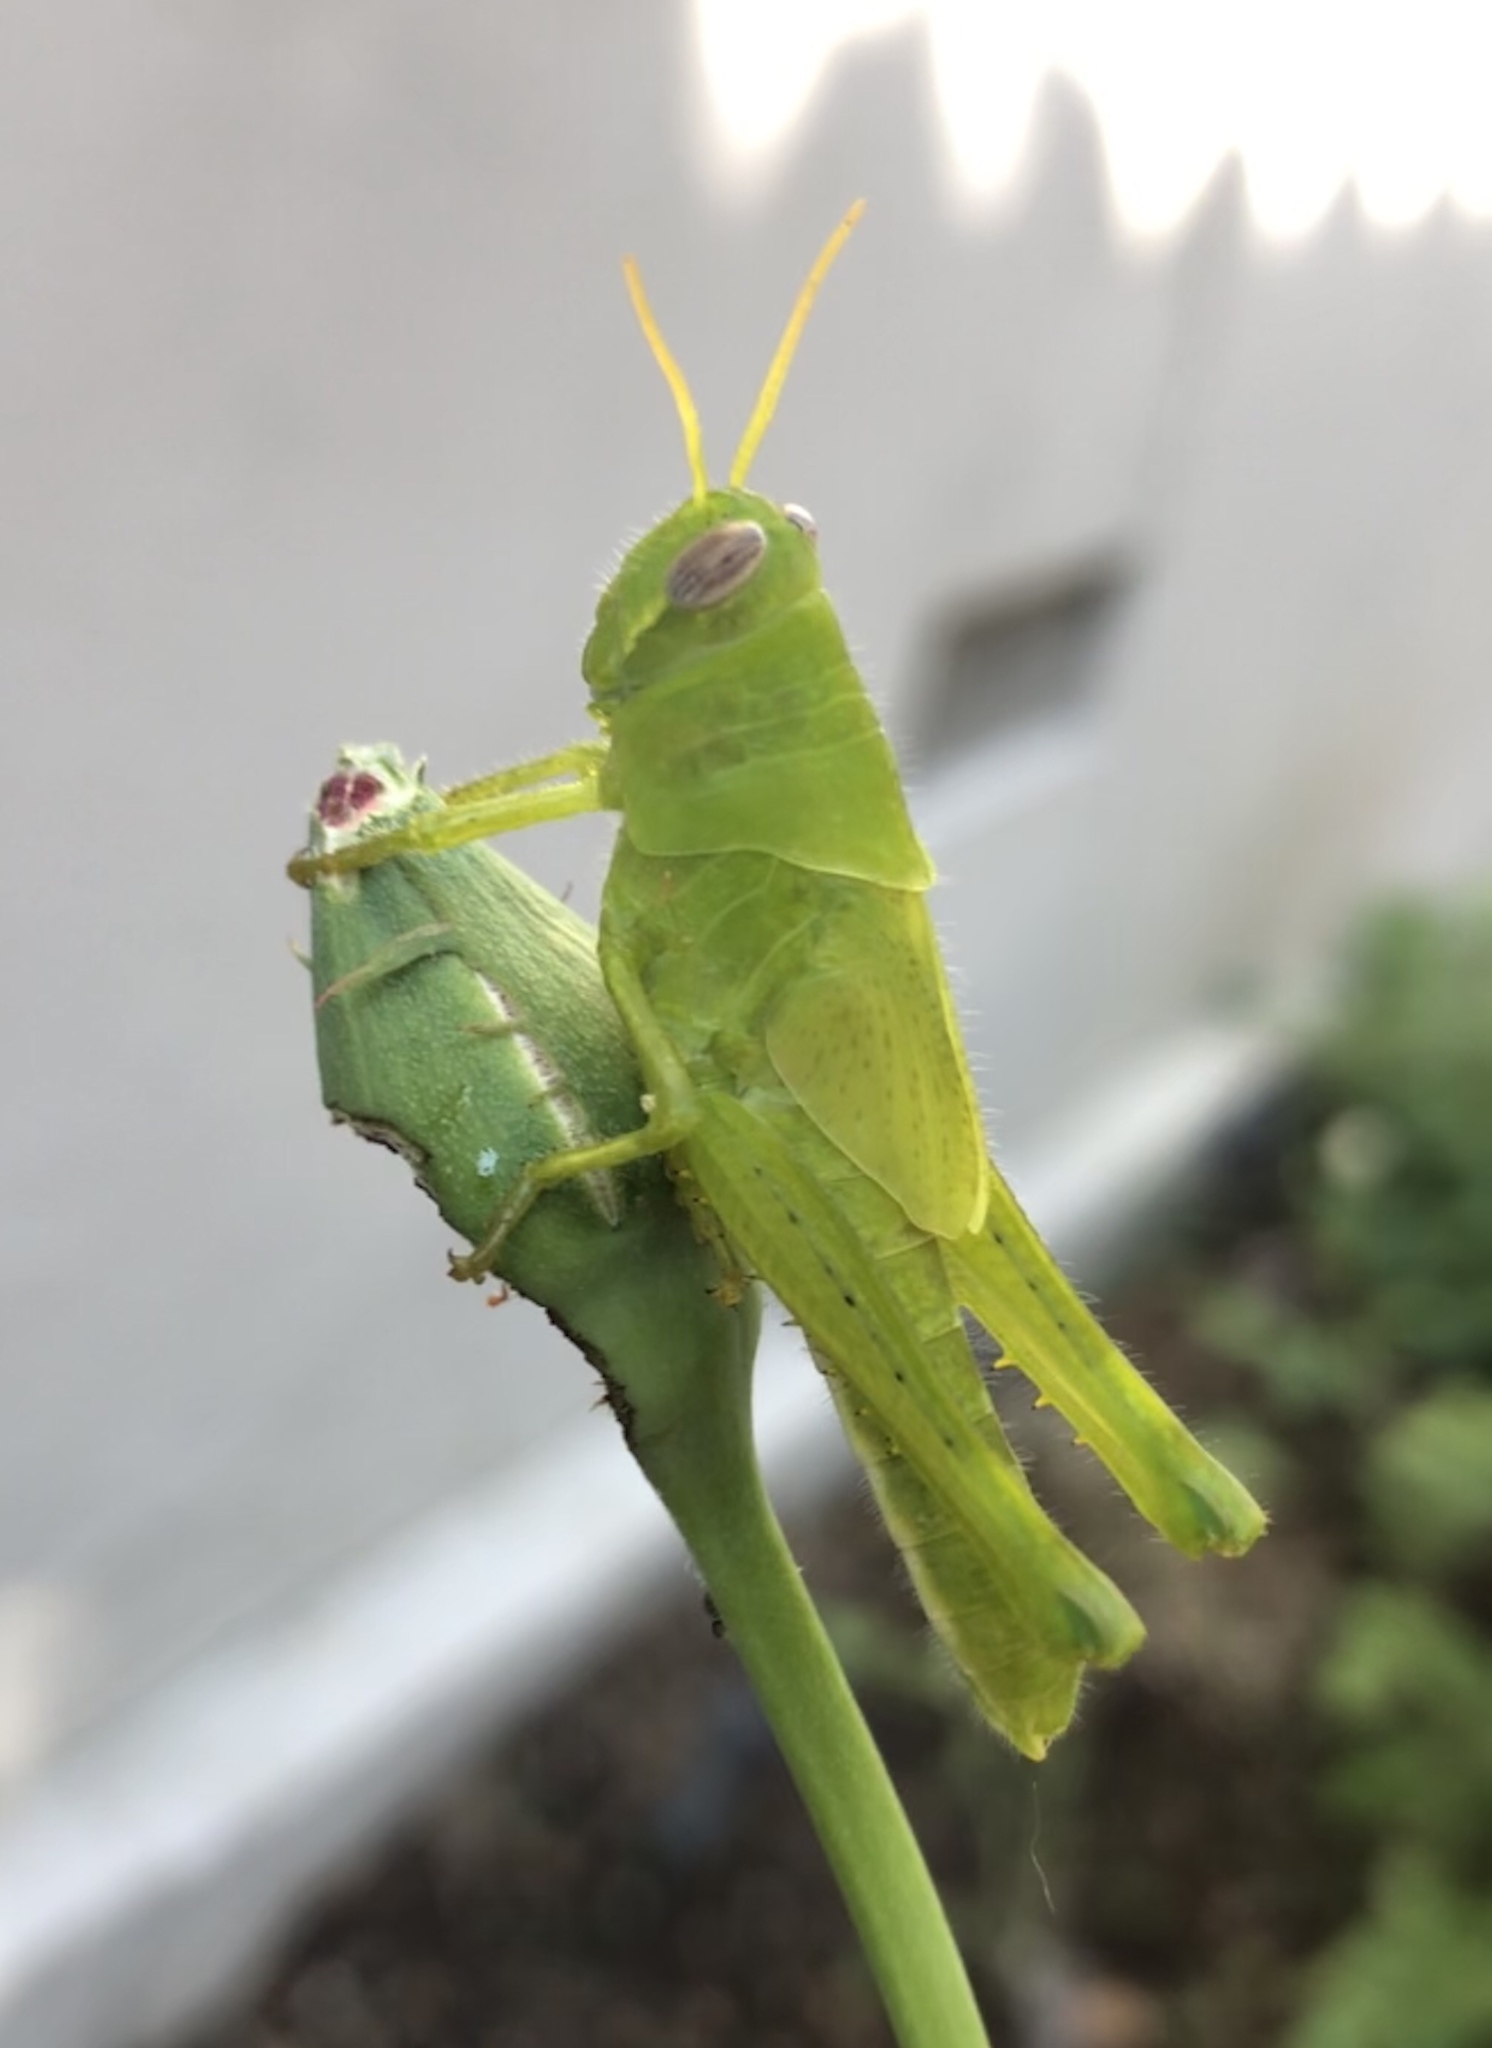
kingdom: Animalia
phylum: Arthropoda
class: Insecta
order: Orthoptera
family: Acrididae
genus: Schistocerca
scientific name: Schistocerca nitens
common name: Vagrant grasshopper
